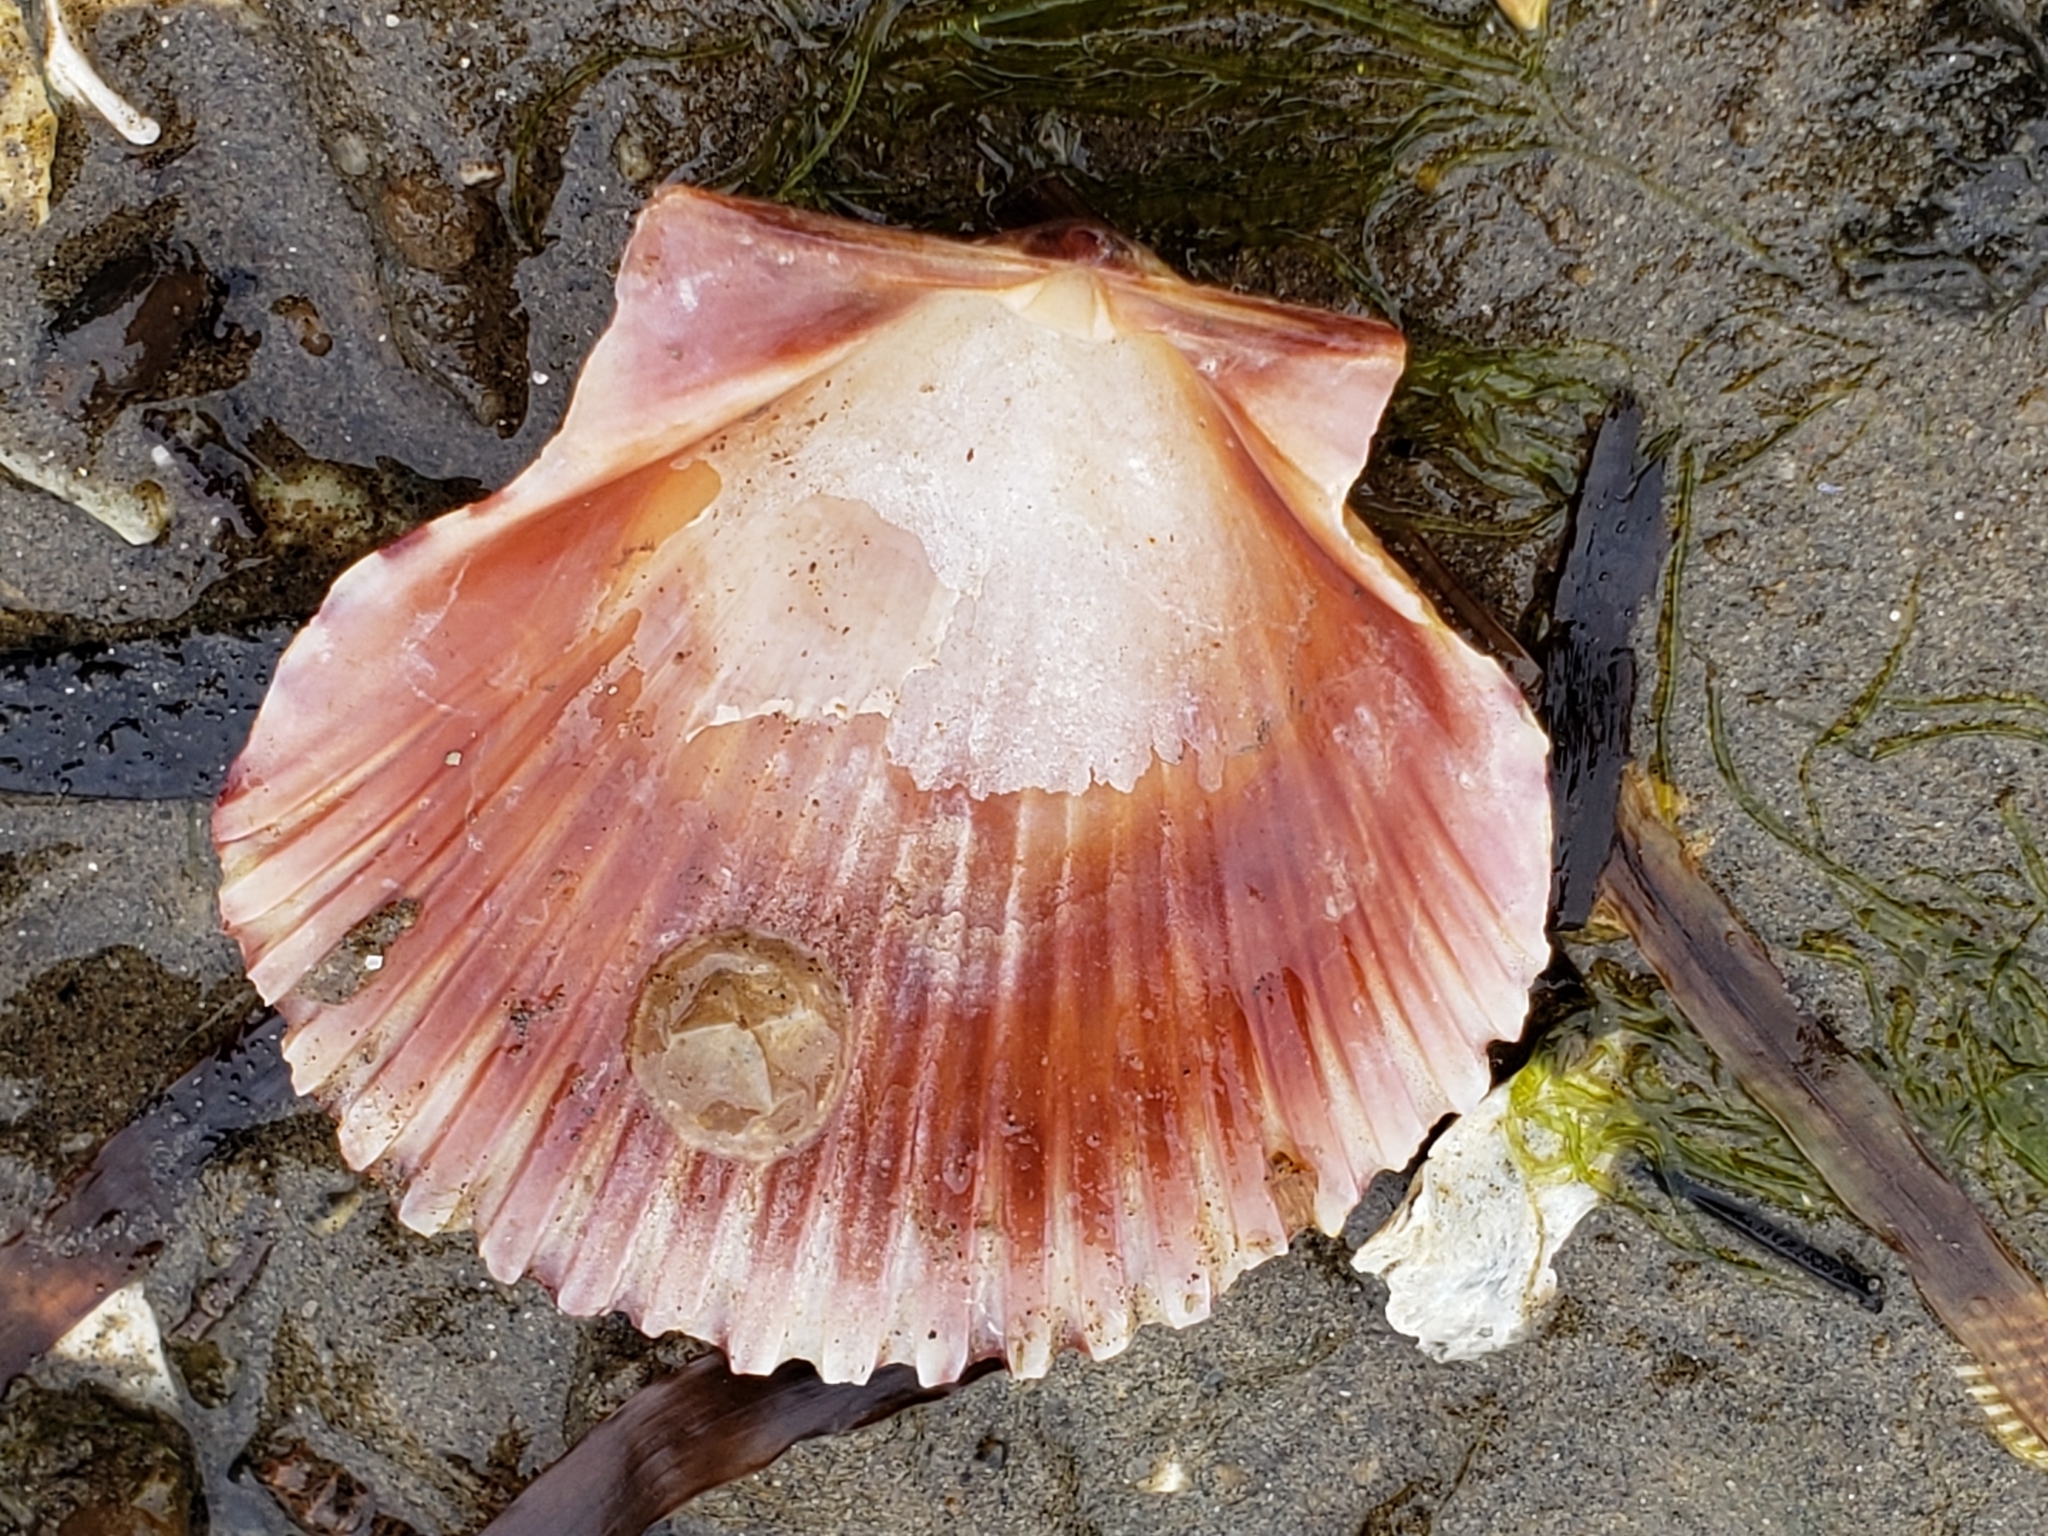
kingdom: Animalia
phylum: Mollusca
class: Bivalvia
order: Pectinida
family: Pectinidae
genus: Argopecten
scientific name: Argopecten ventricosus
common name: Catarina scallop
